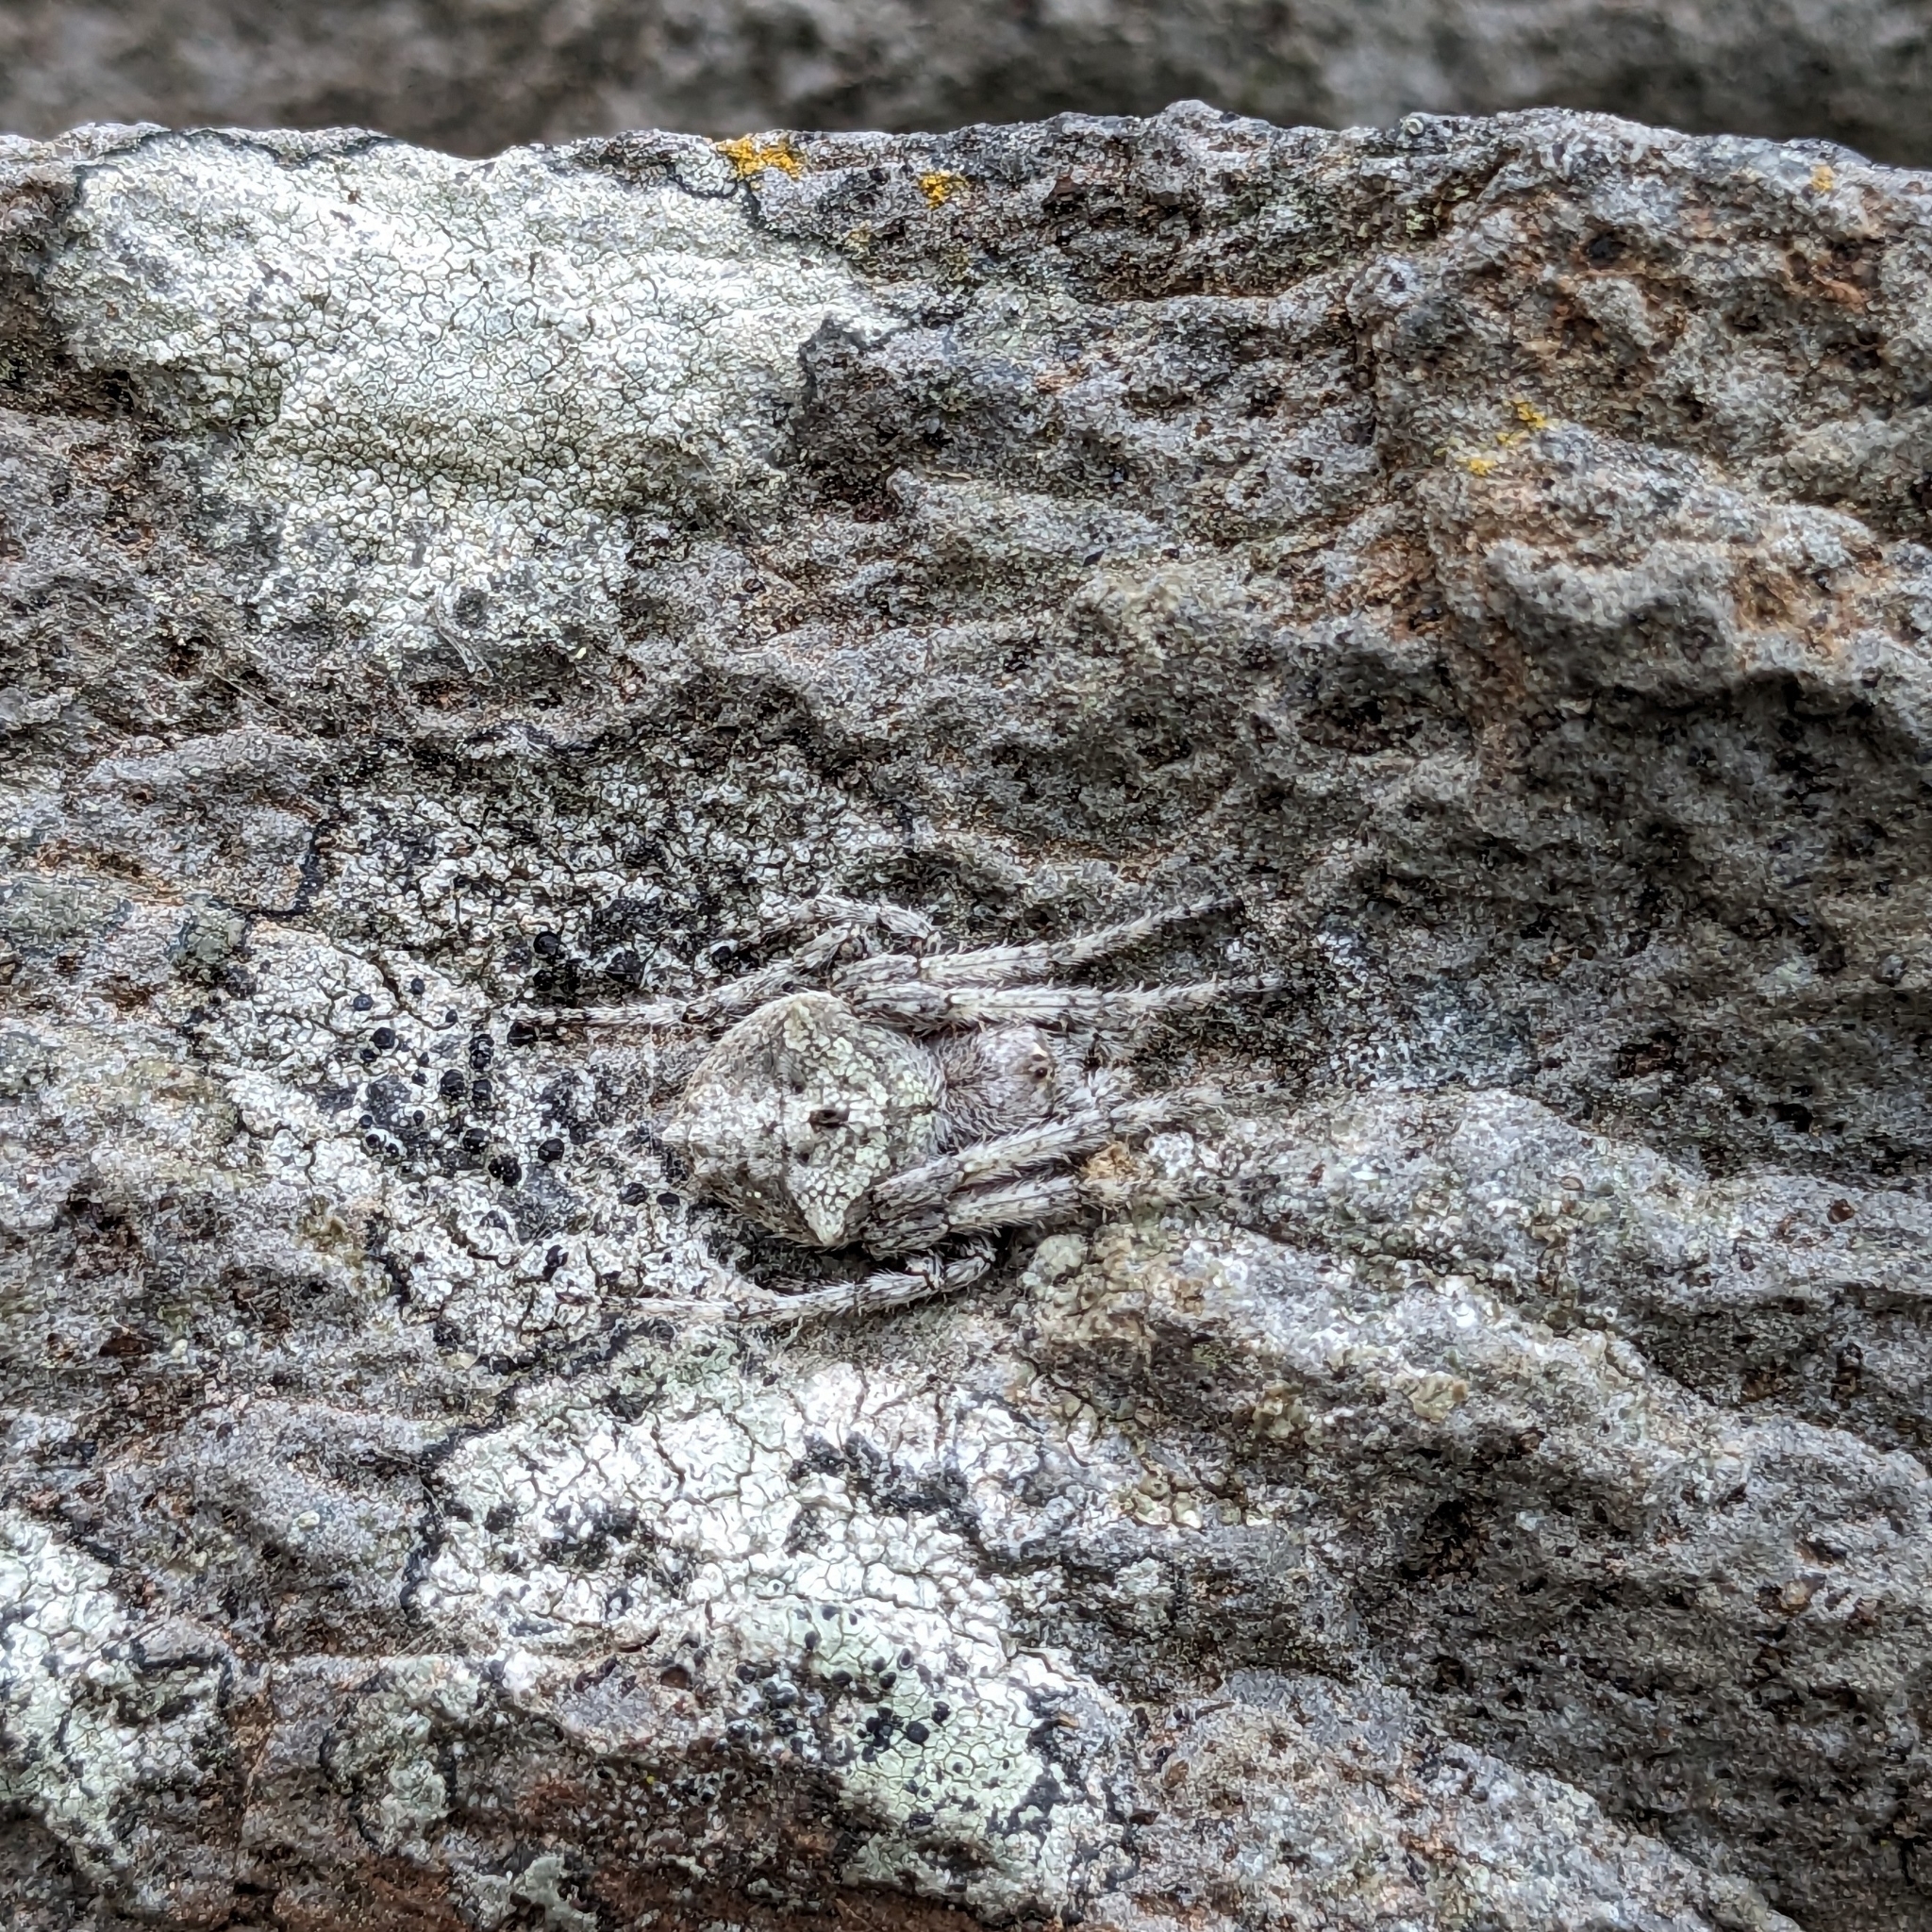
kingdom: Animalia
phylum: Arthropoda
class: Arachnida
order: Araneae
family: Araneidae
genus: Eriophora
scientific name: Eriophora pustulosa
